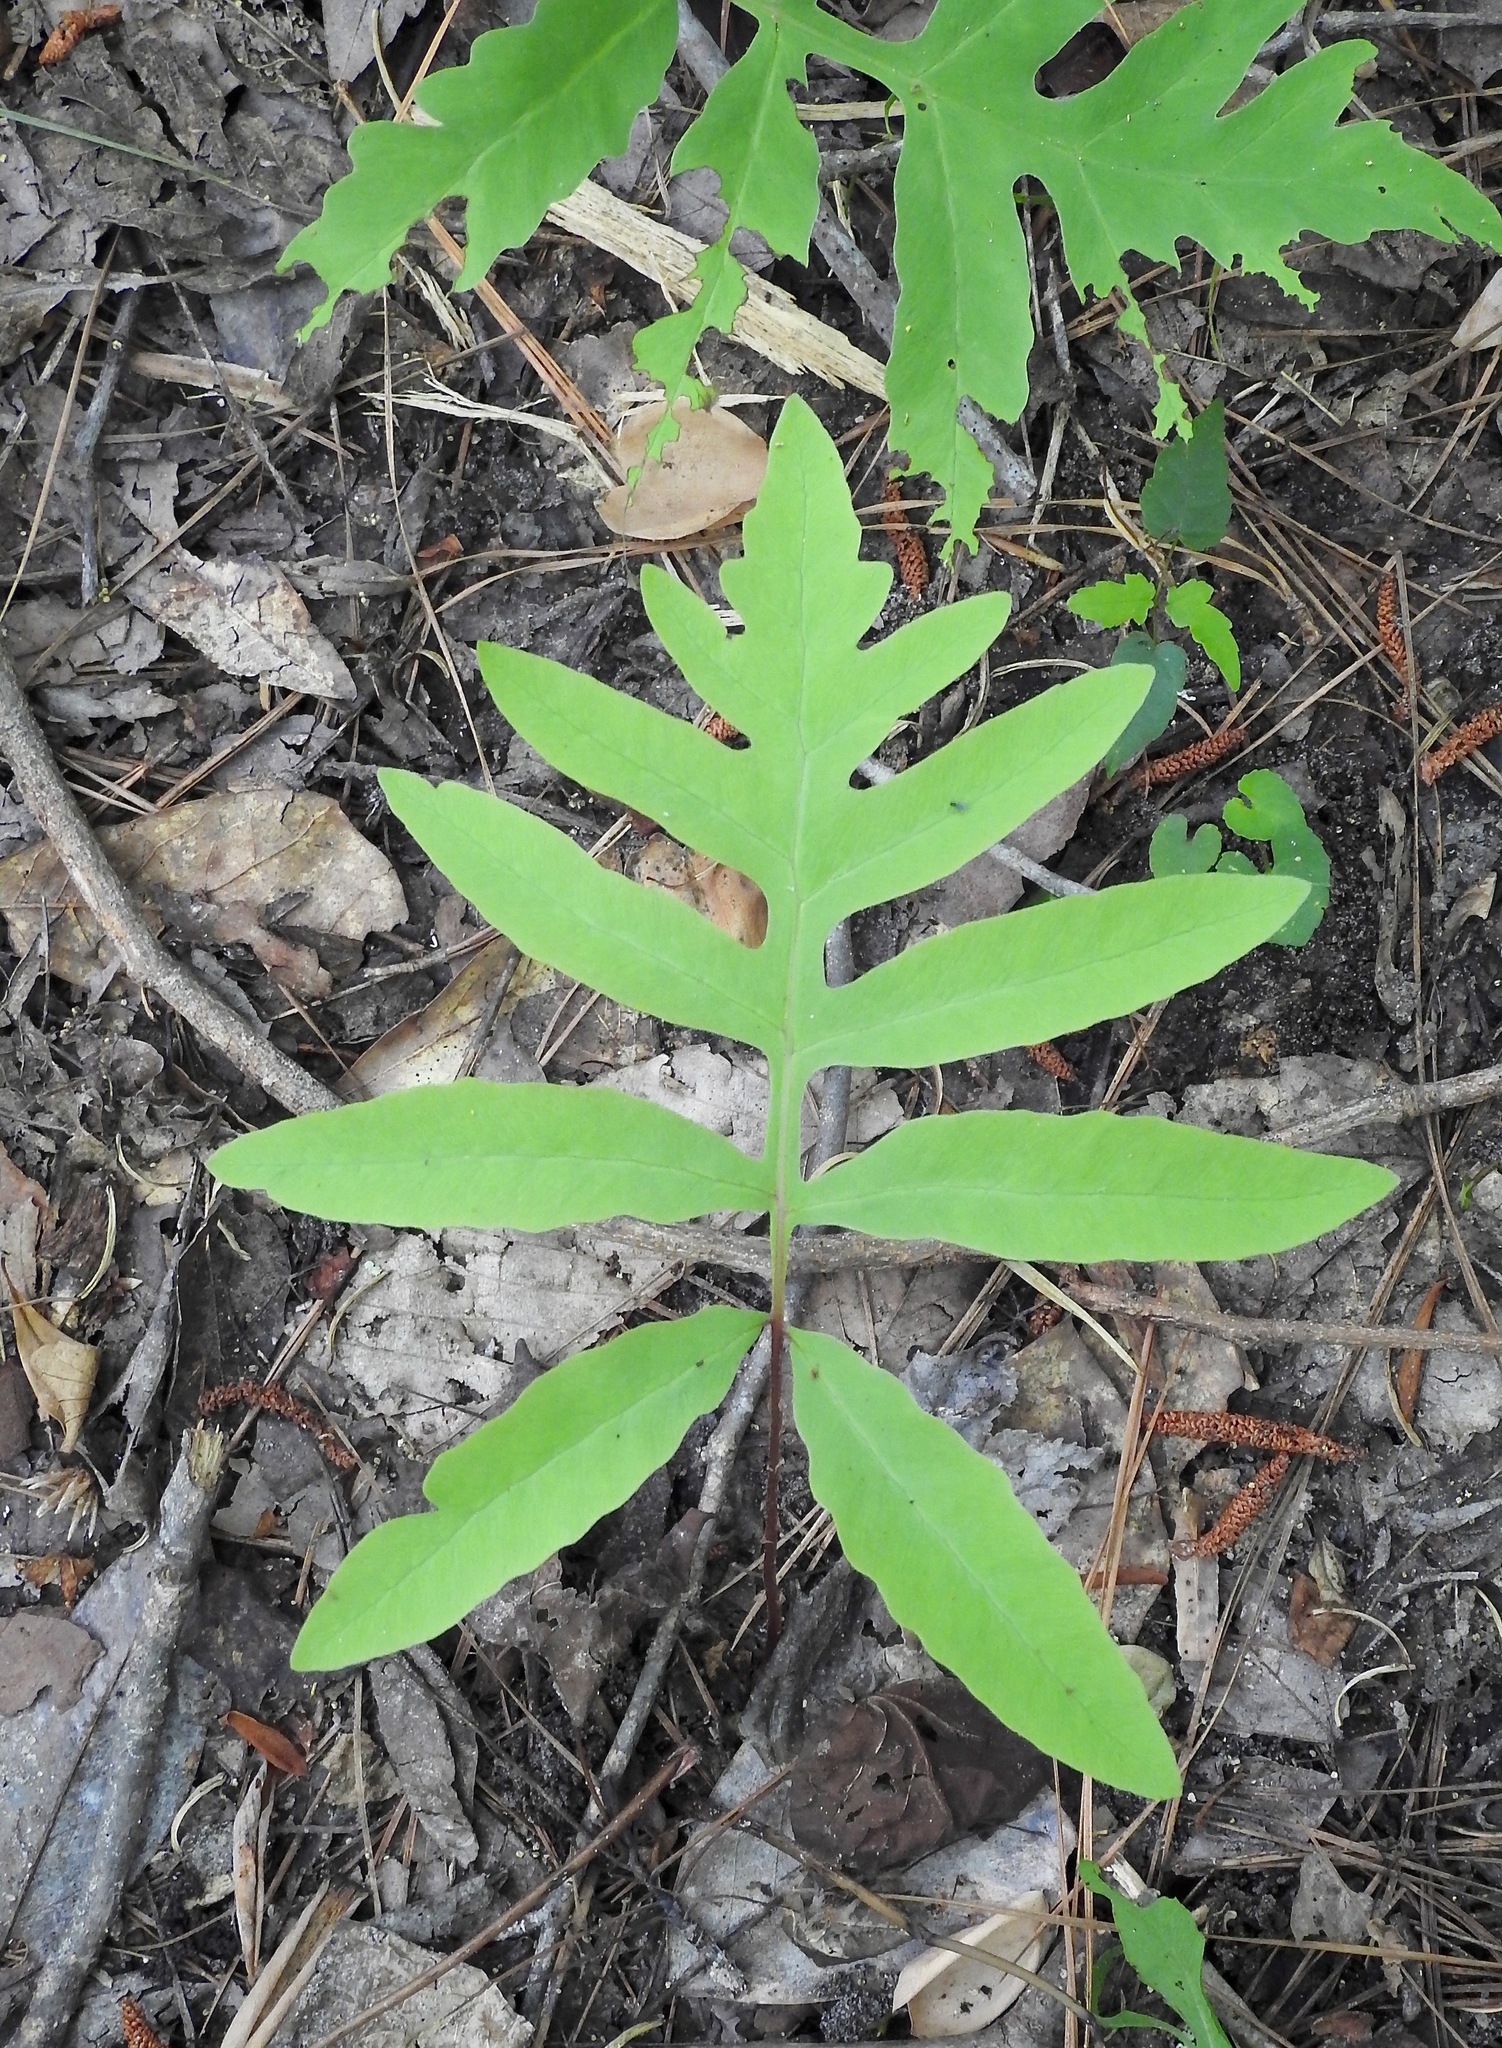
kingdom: Plantae
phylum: Tracheophyta
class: Polypodiopsida
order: Polypodiales
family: Onocleaceae
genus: Onoclea
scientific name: Onoclea sensibilis
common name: Sensitive fern
